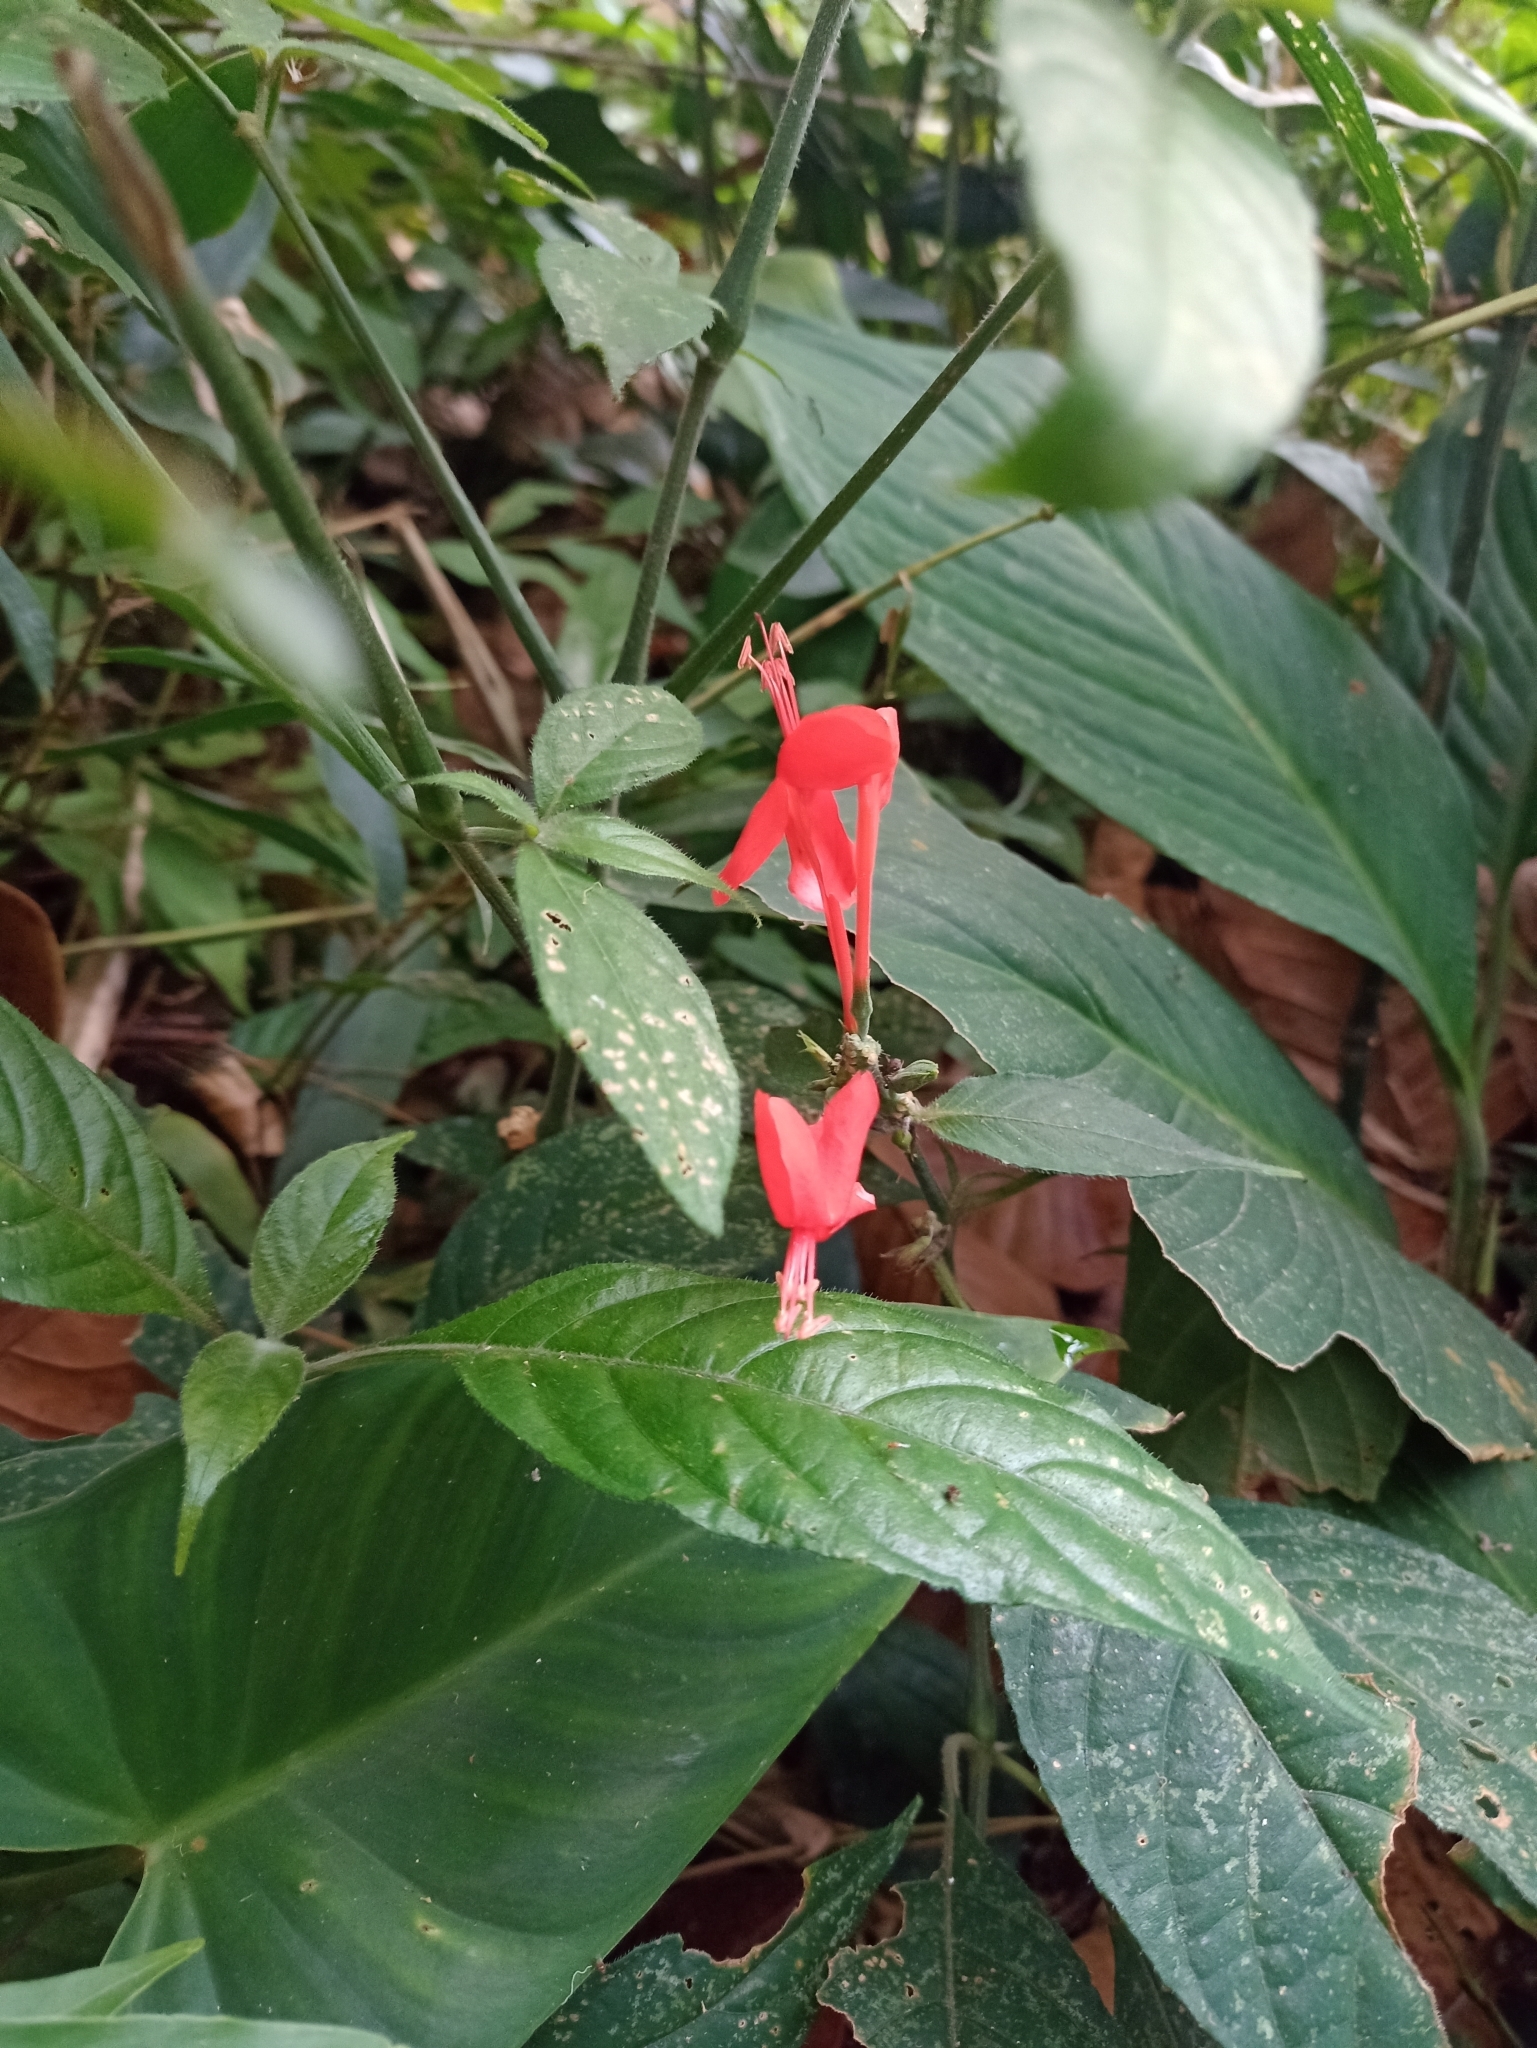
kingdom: Plantae
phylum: Tracheophyta
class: Magnoliopsida
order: Lamiales
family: Acanthaceae
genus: Ruellia
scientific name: Ruellia macrophylla
